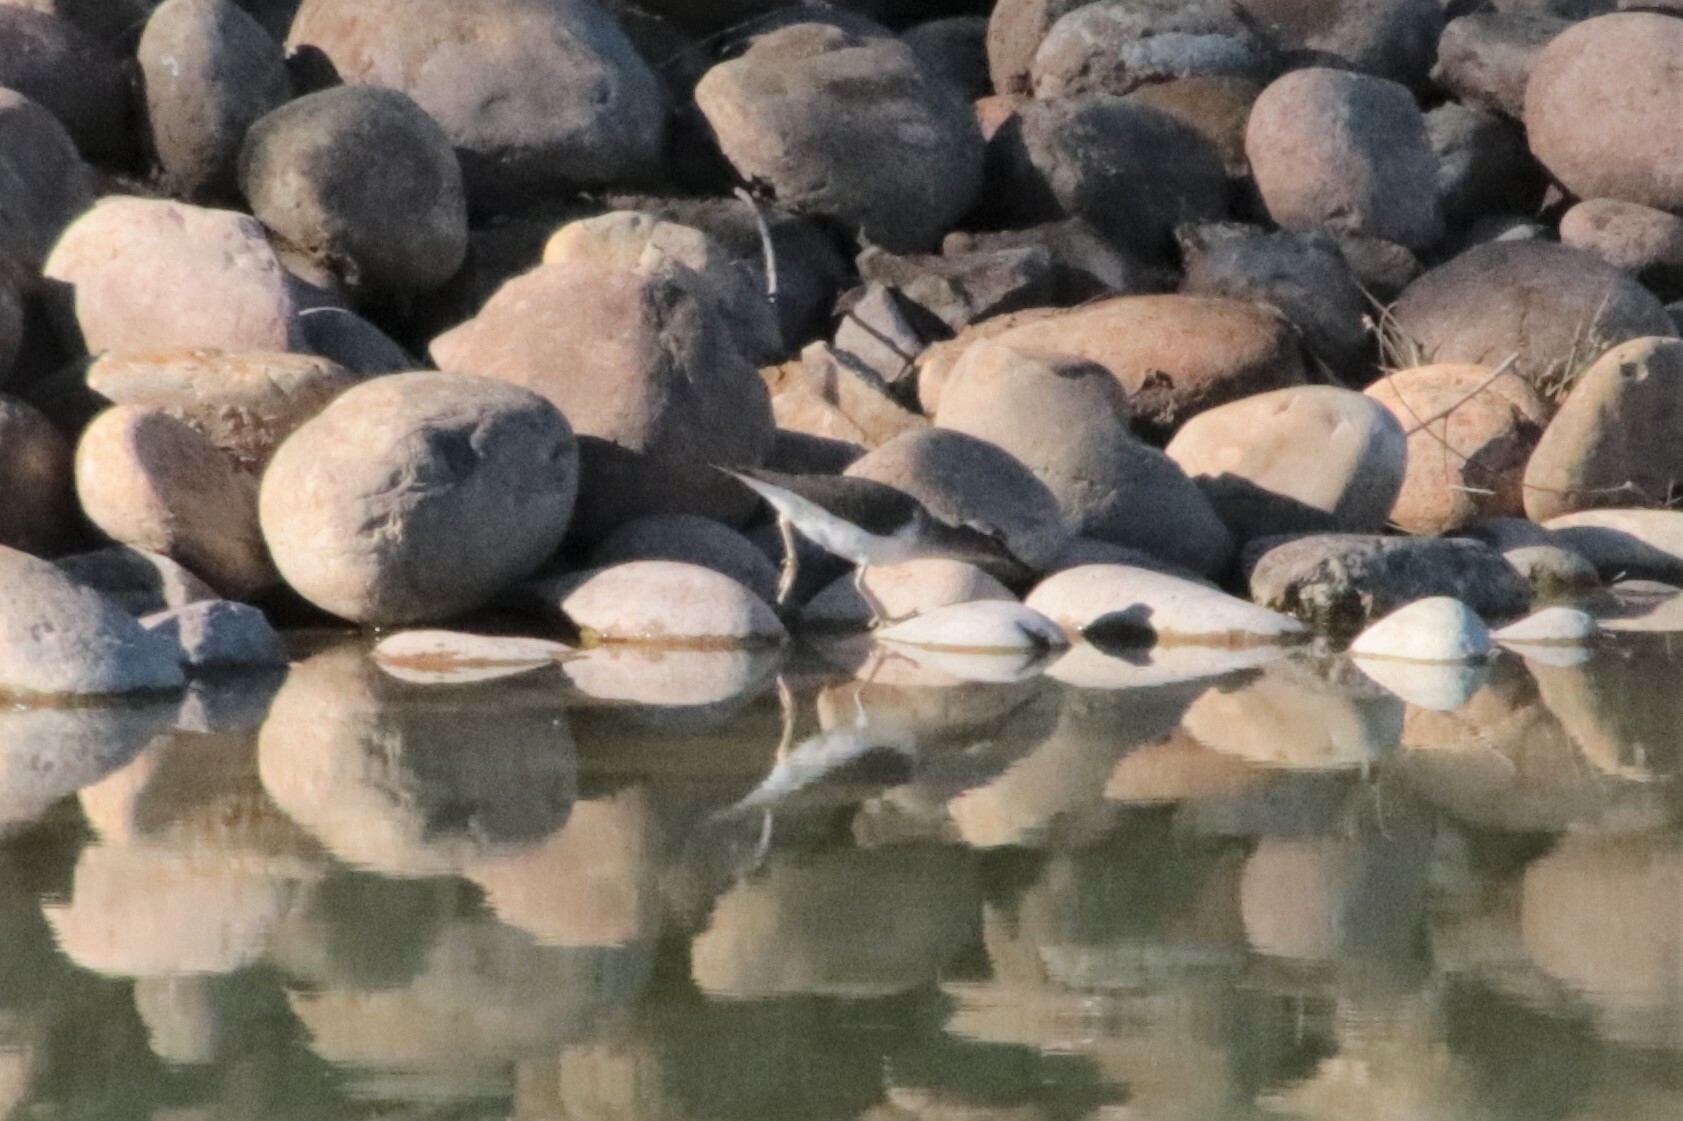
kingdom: Animalia
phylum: Chordata
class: Aves
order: Charadriiformes
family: Scolopacidae
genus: Actitis
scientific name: Actitis macularius
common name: Spotted sandpiper
